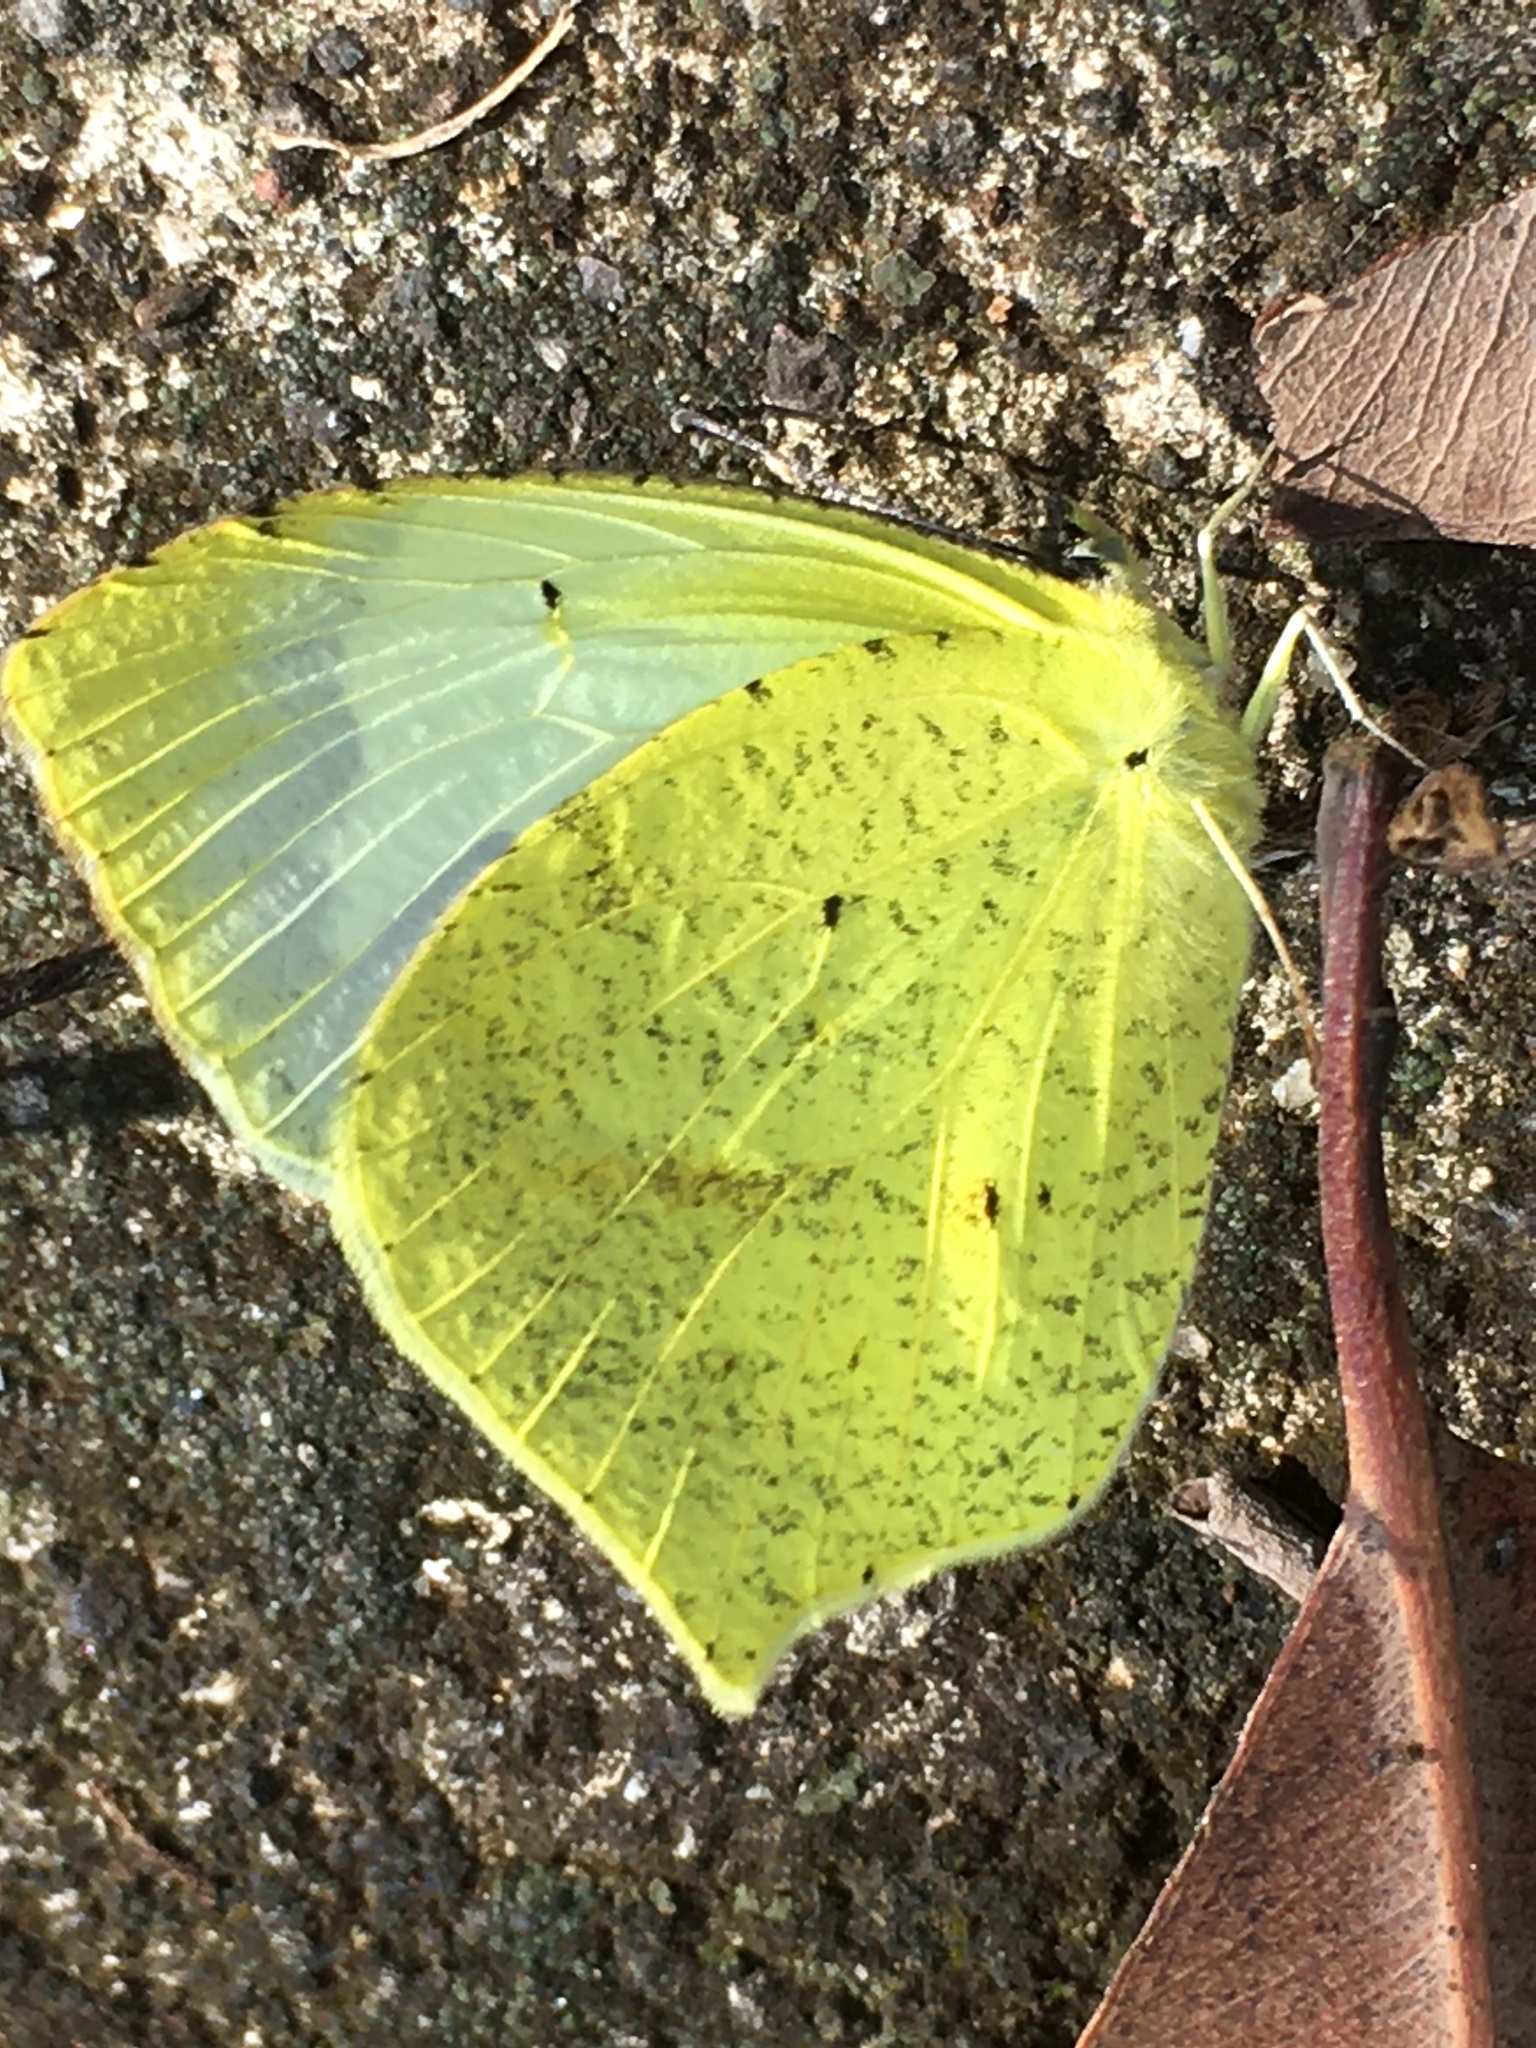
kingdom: Animalia
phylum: Arthropoda
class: Insecta
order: Lepidoptera
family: Pieridae
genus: Abaeis
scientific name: Abaeis mexicana
